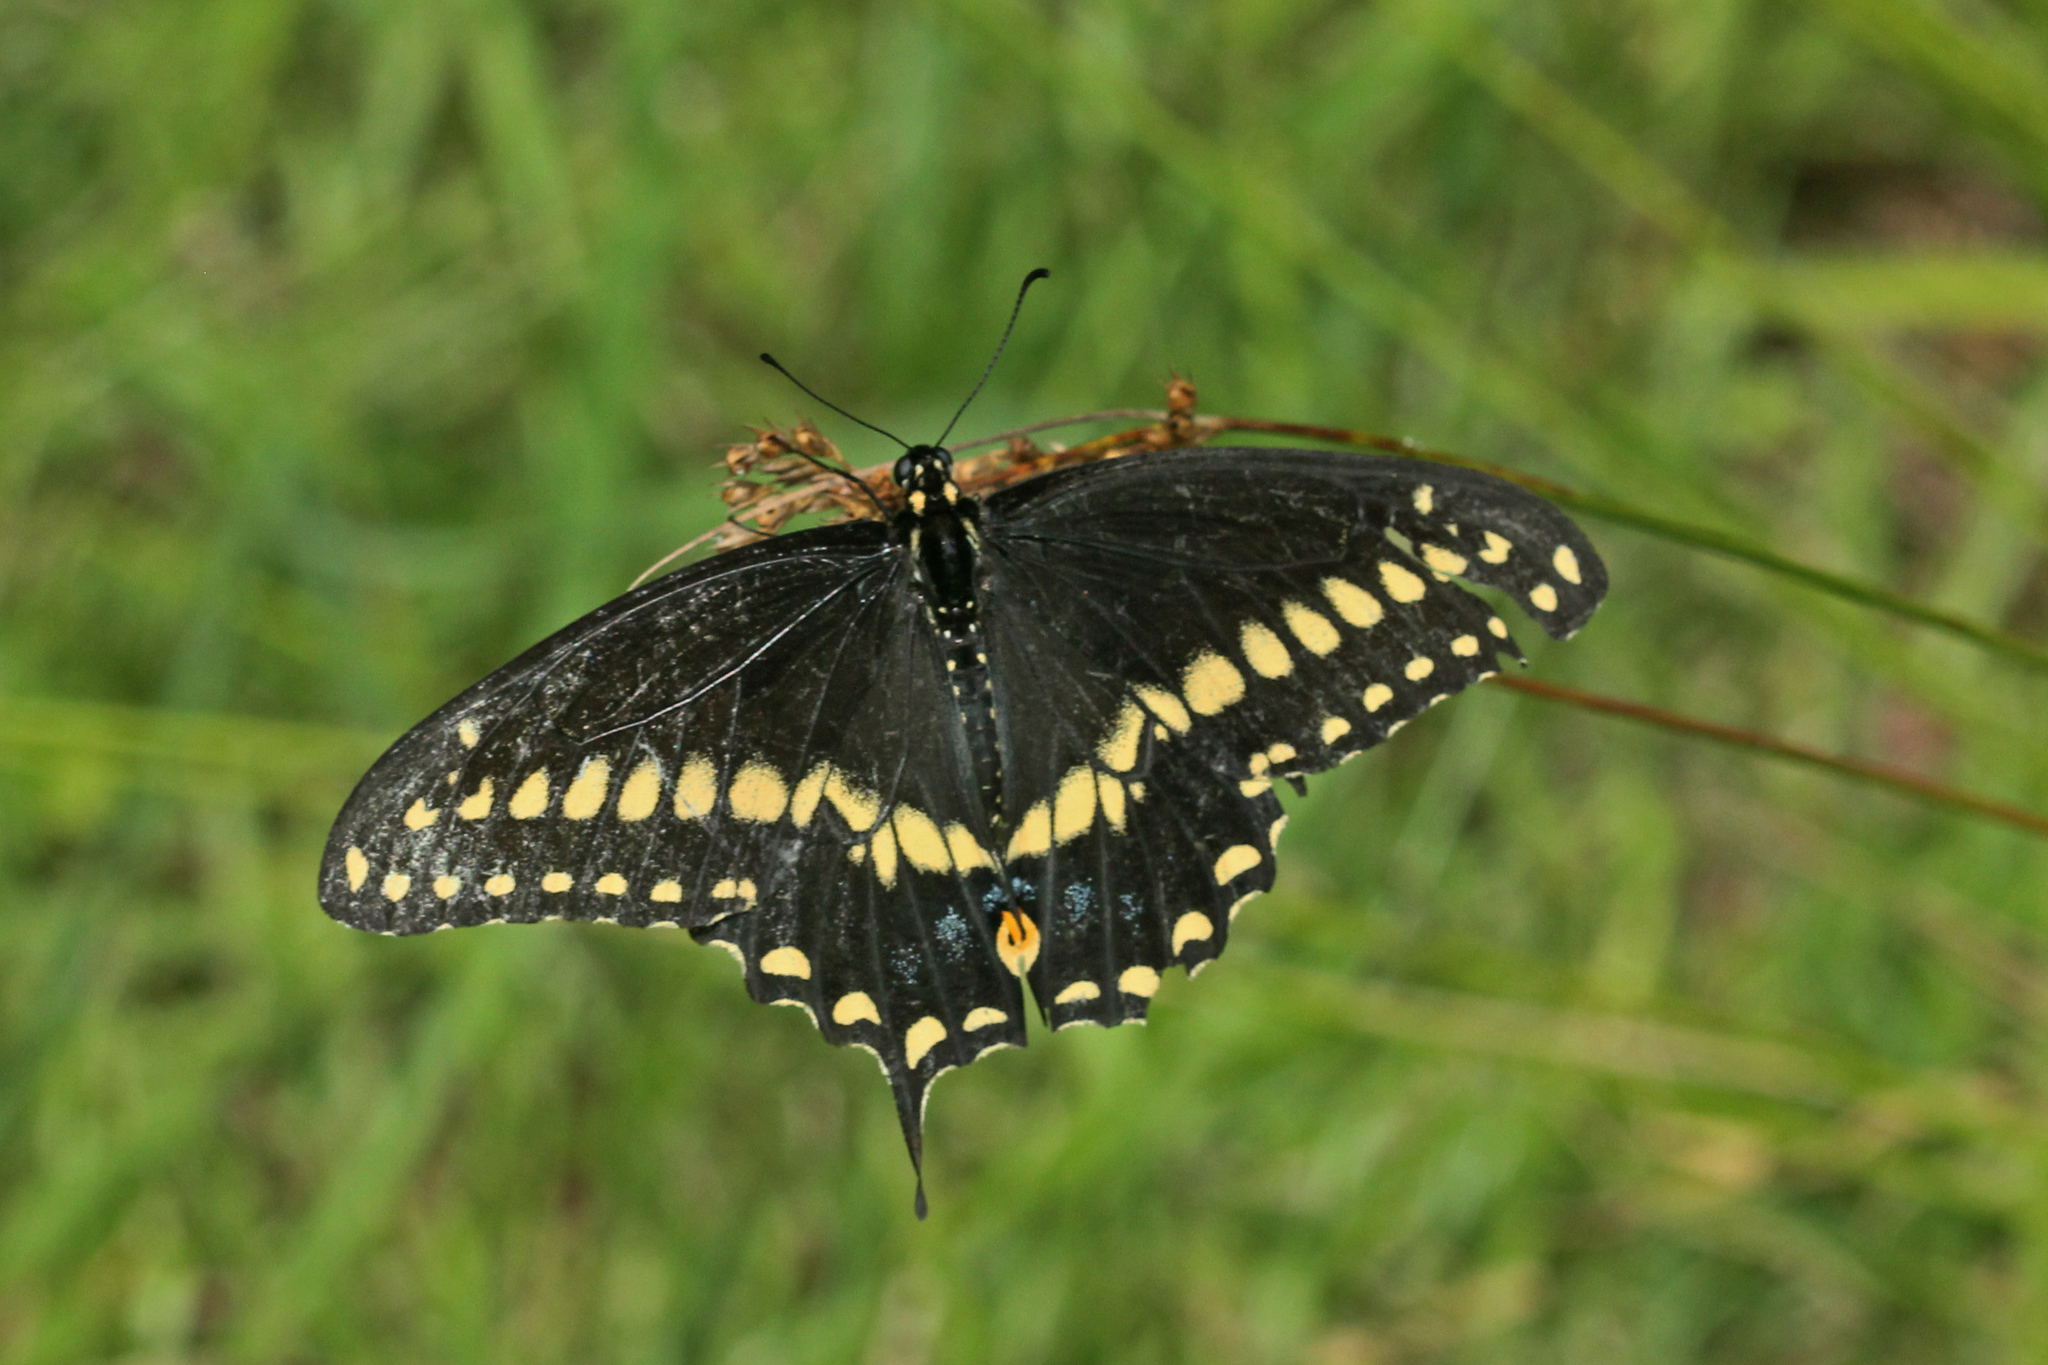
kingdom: Animalia
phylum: Arthropoda
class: Insecta
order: Lepidoptera
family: Papilionidae
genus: Papilio
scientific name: Papilio polyxenes
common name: Black swallowtail
